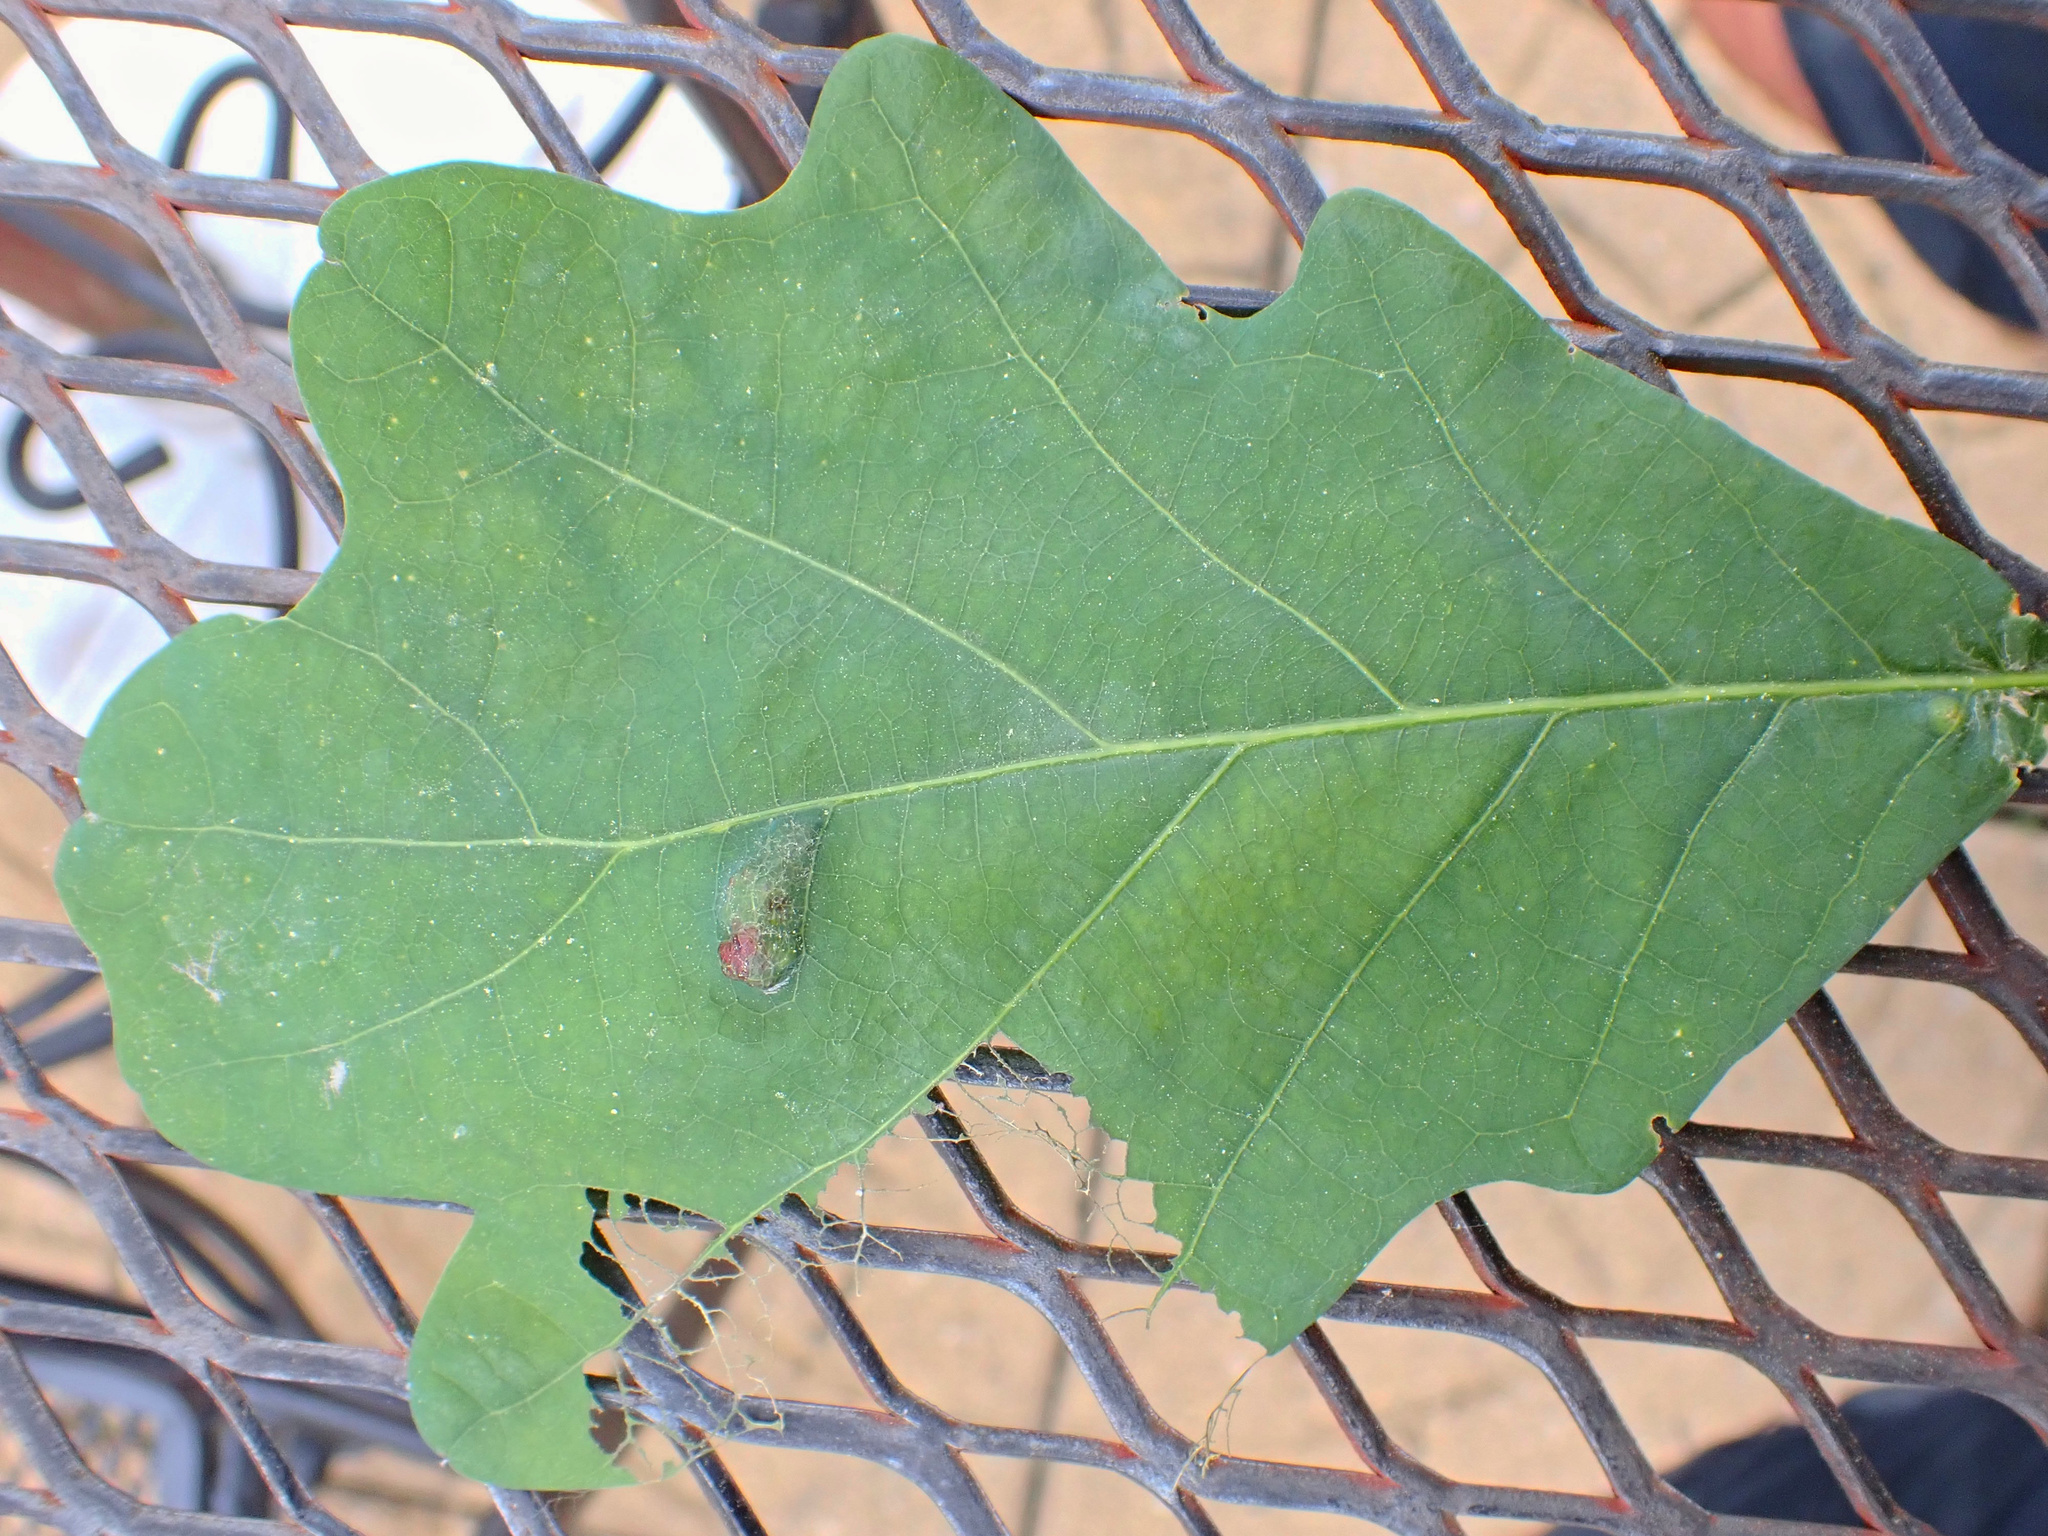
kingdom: Animalia
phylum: Arthropoda
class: Arachnida
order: Trombidiformes
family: Eriophyidae
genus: Aceria
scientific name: Aceria
